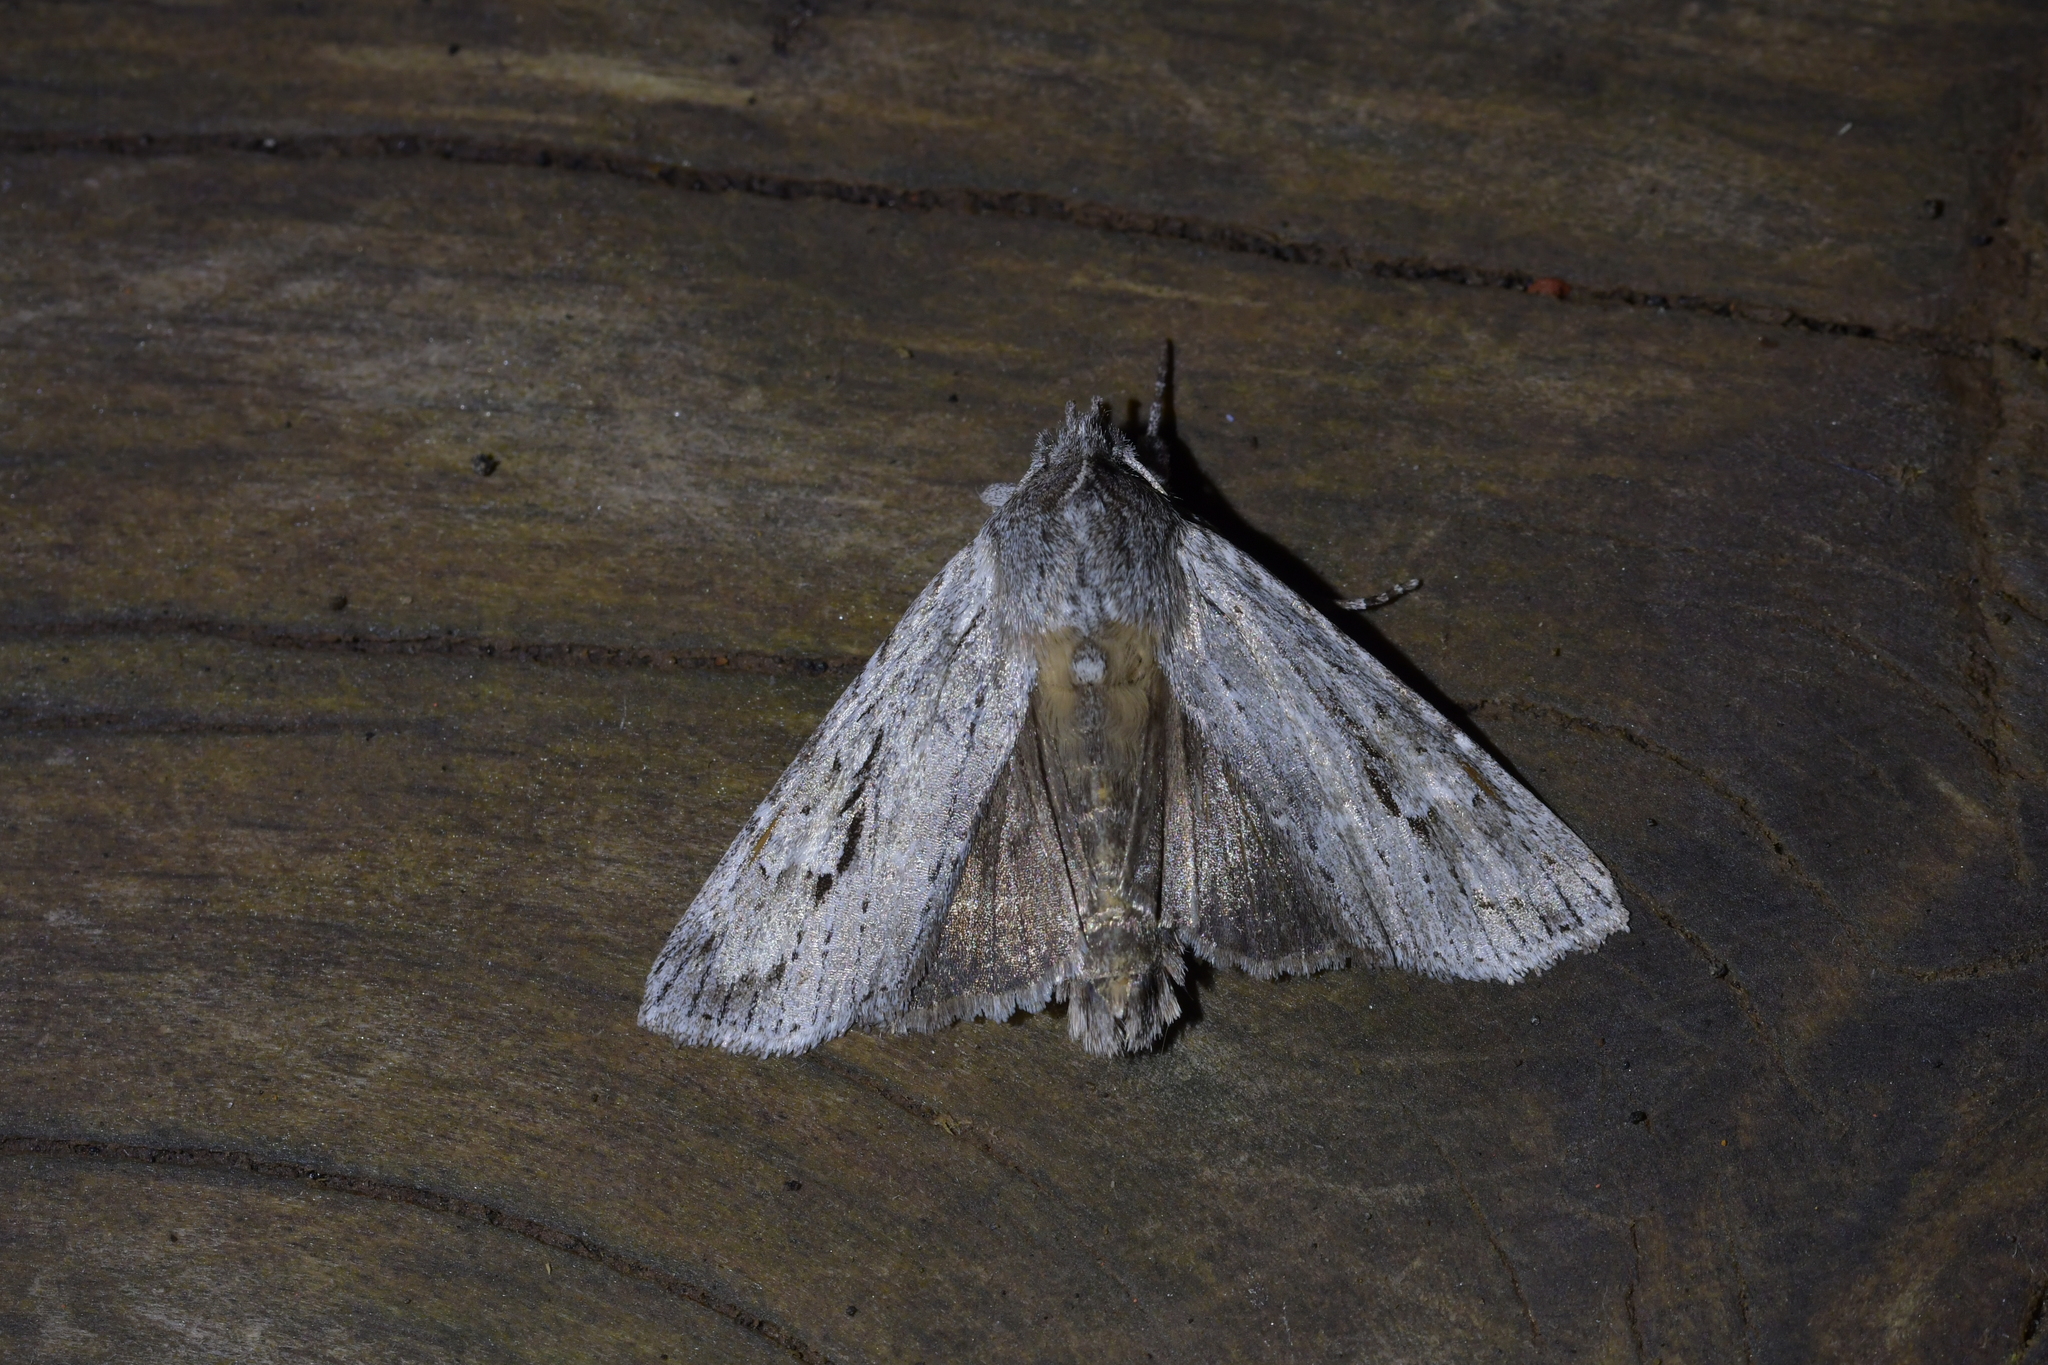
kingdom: Animalia
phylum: Arthropoda
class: Insecta
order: Lepidoptera
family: Noctuidae
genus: Physetica
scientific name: Physetica sequens
